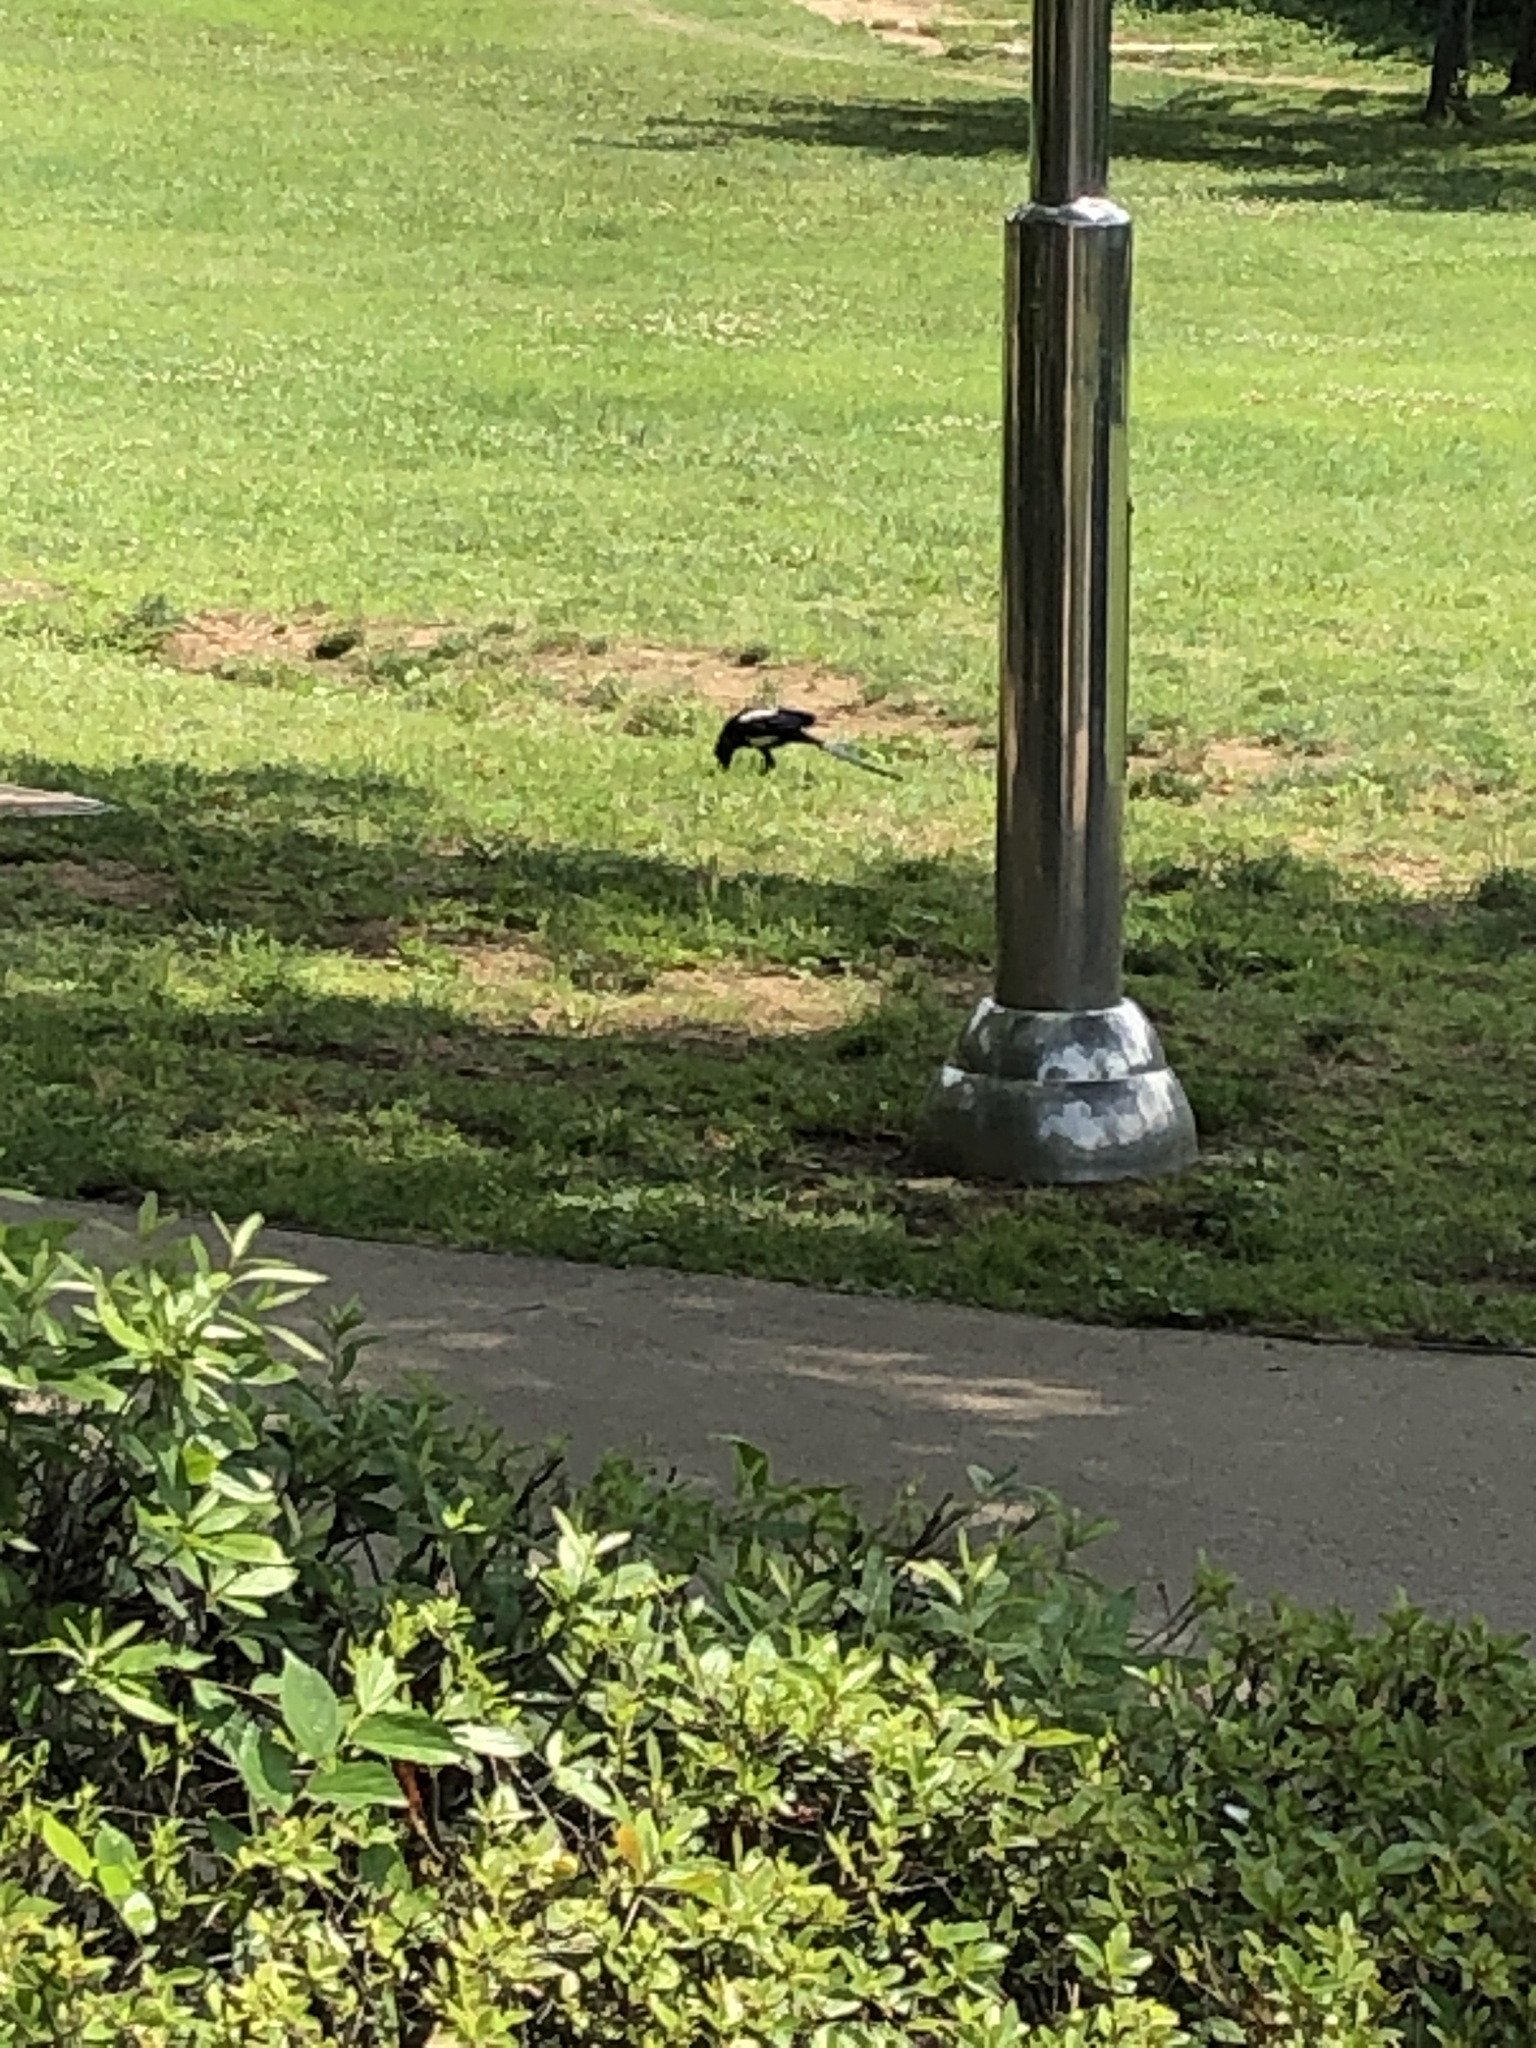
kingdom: Animalia
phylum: Chordata
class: Aves
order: Passeriformes
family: Corvidae
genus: Pica
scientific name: Pica serica
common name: Oriental magpie
